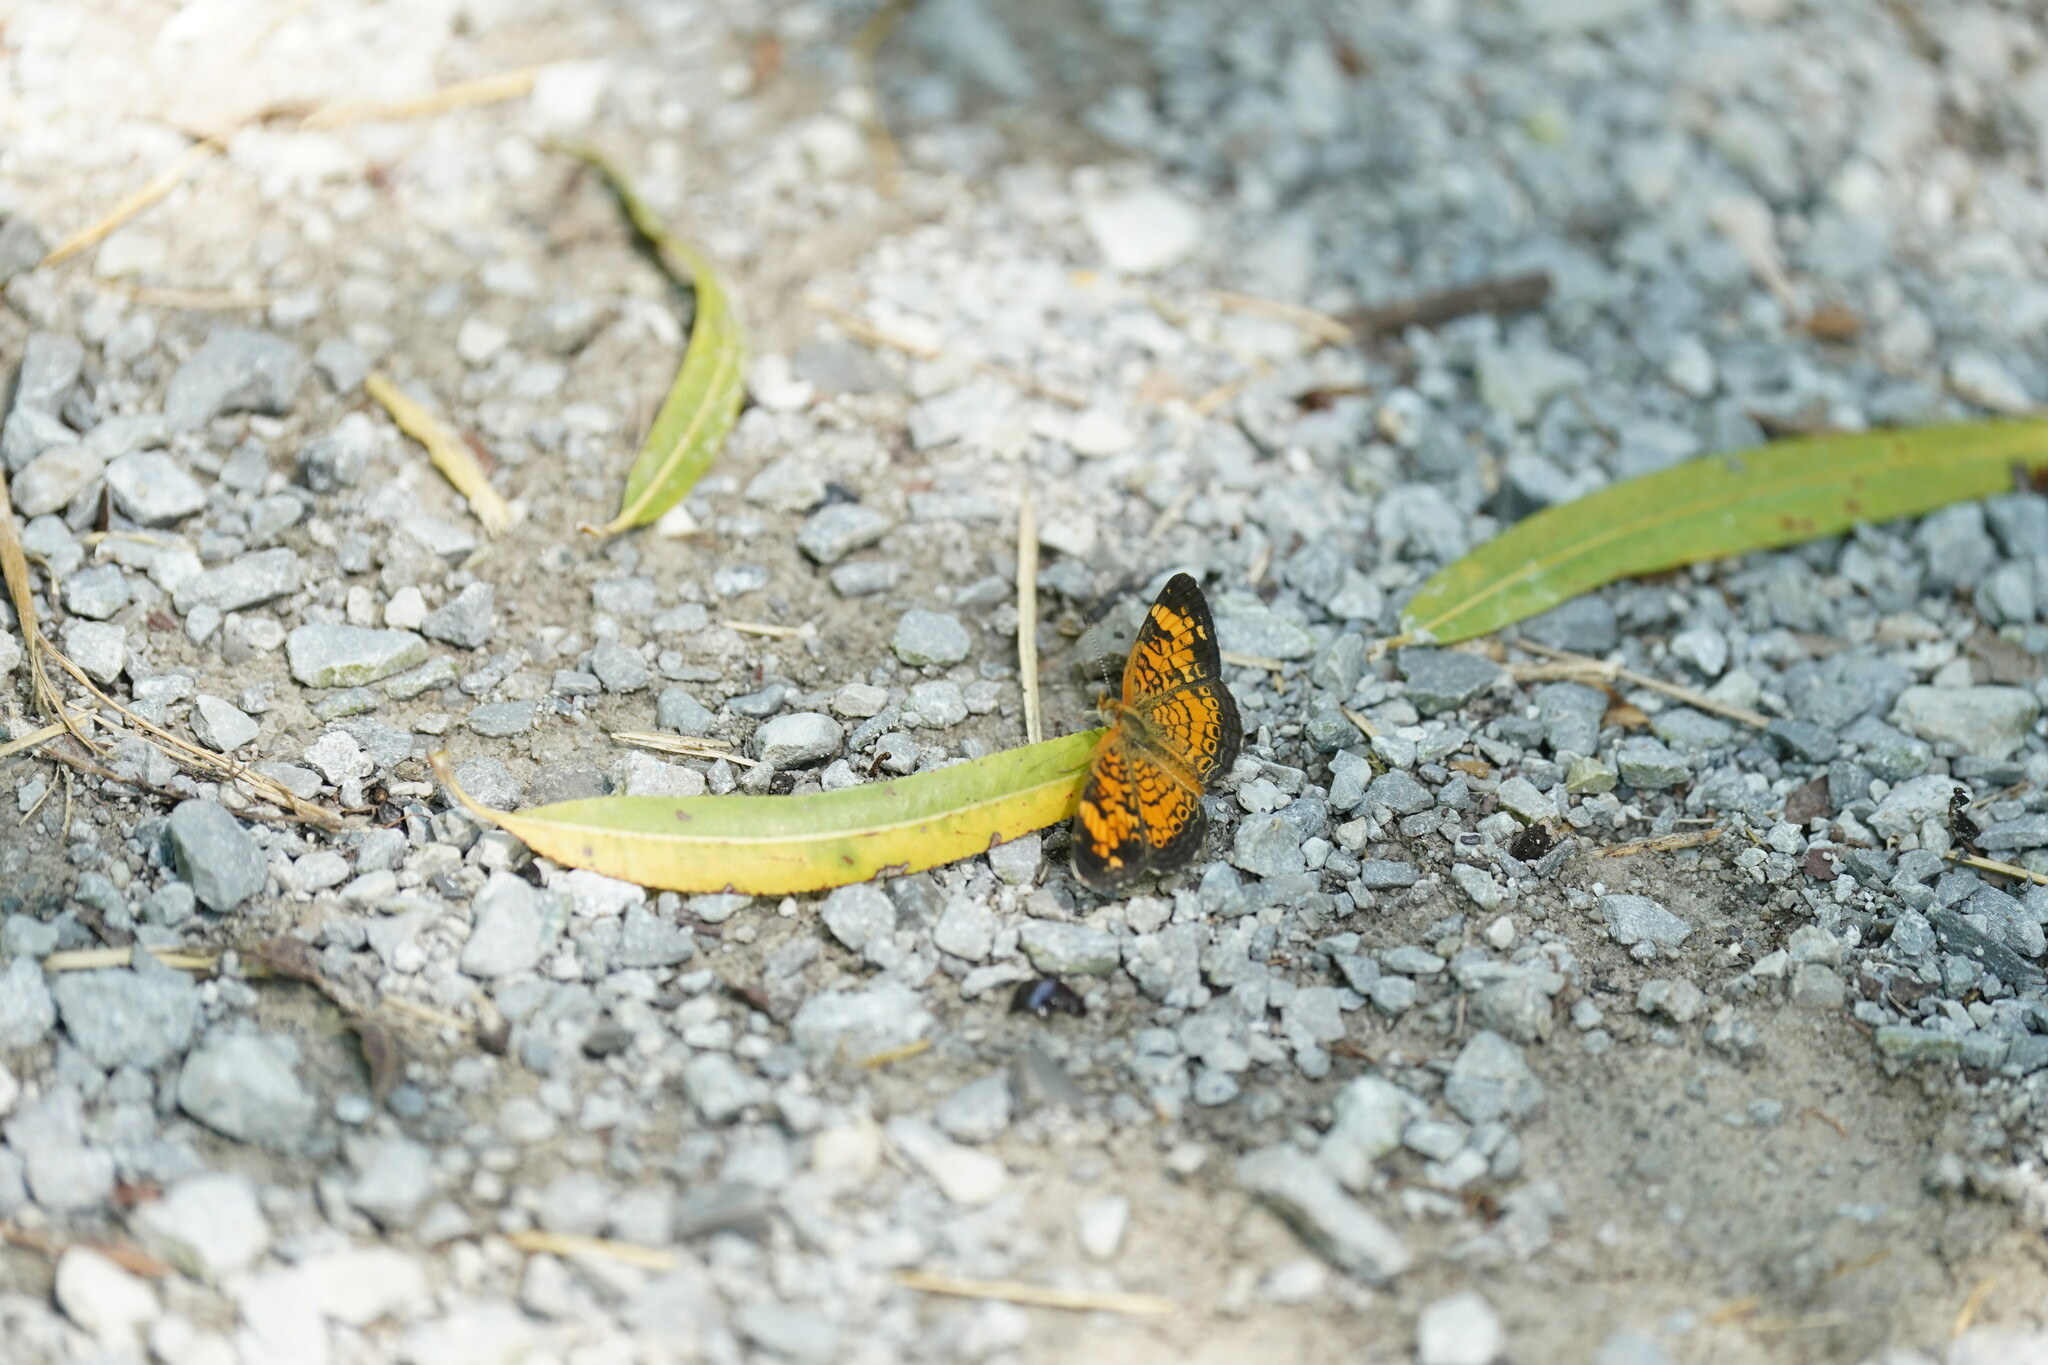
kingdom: Animalia
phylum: Arthropoda
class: Insecta
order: Lepidoptera
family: Nymphalidae
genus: Phyciodes
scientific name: Phyciodes tharos
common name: Pearl crescent
